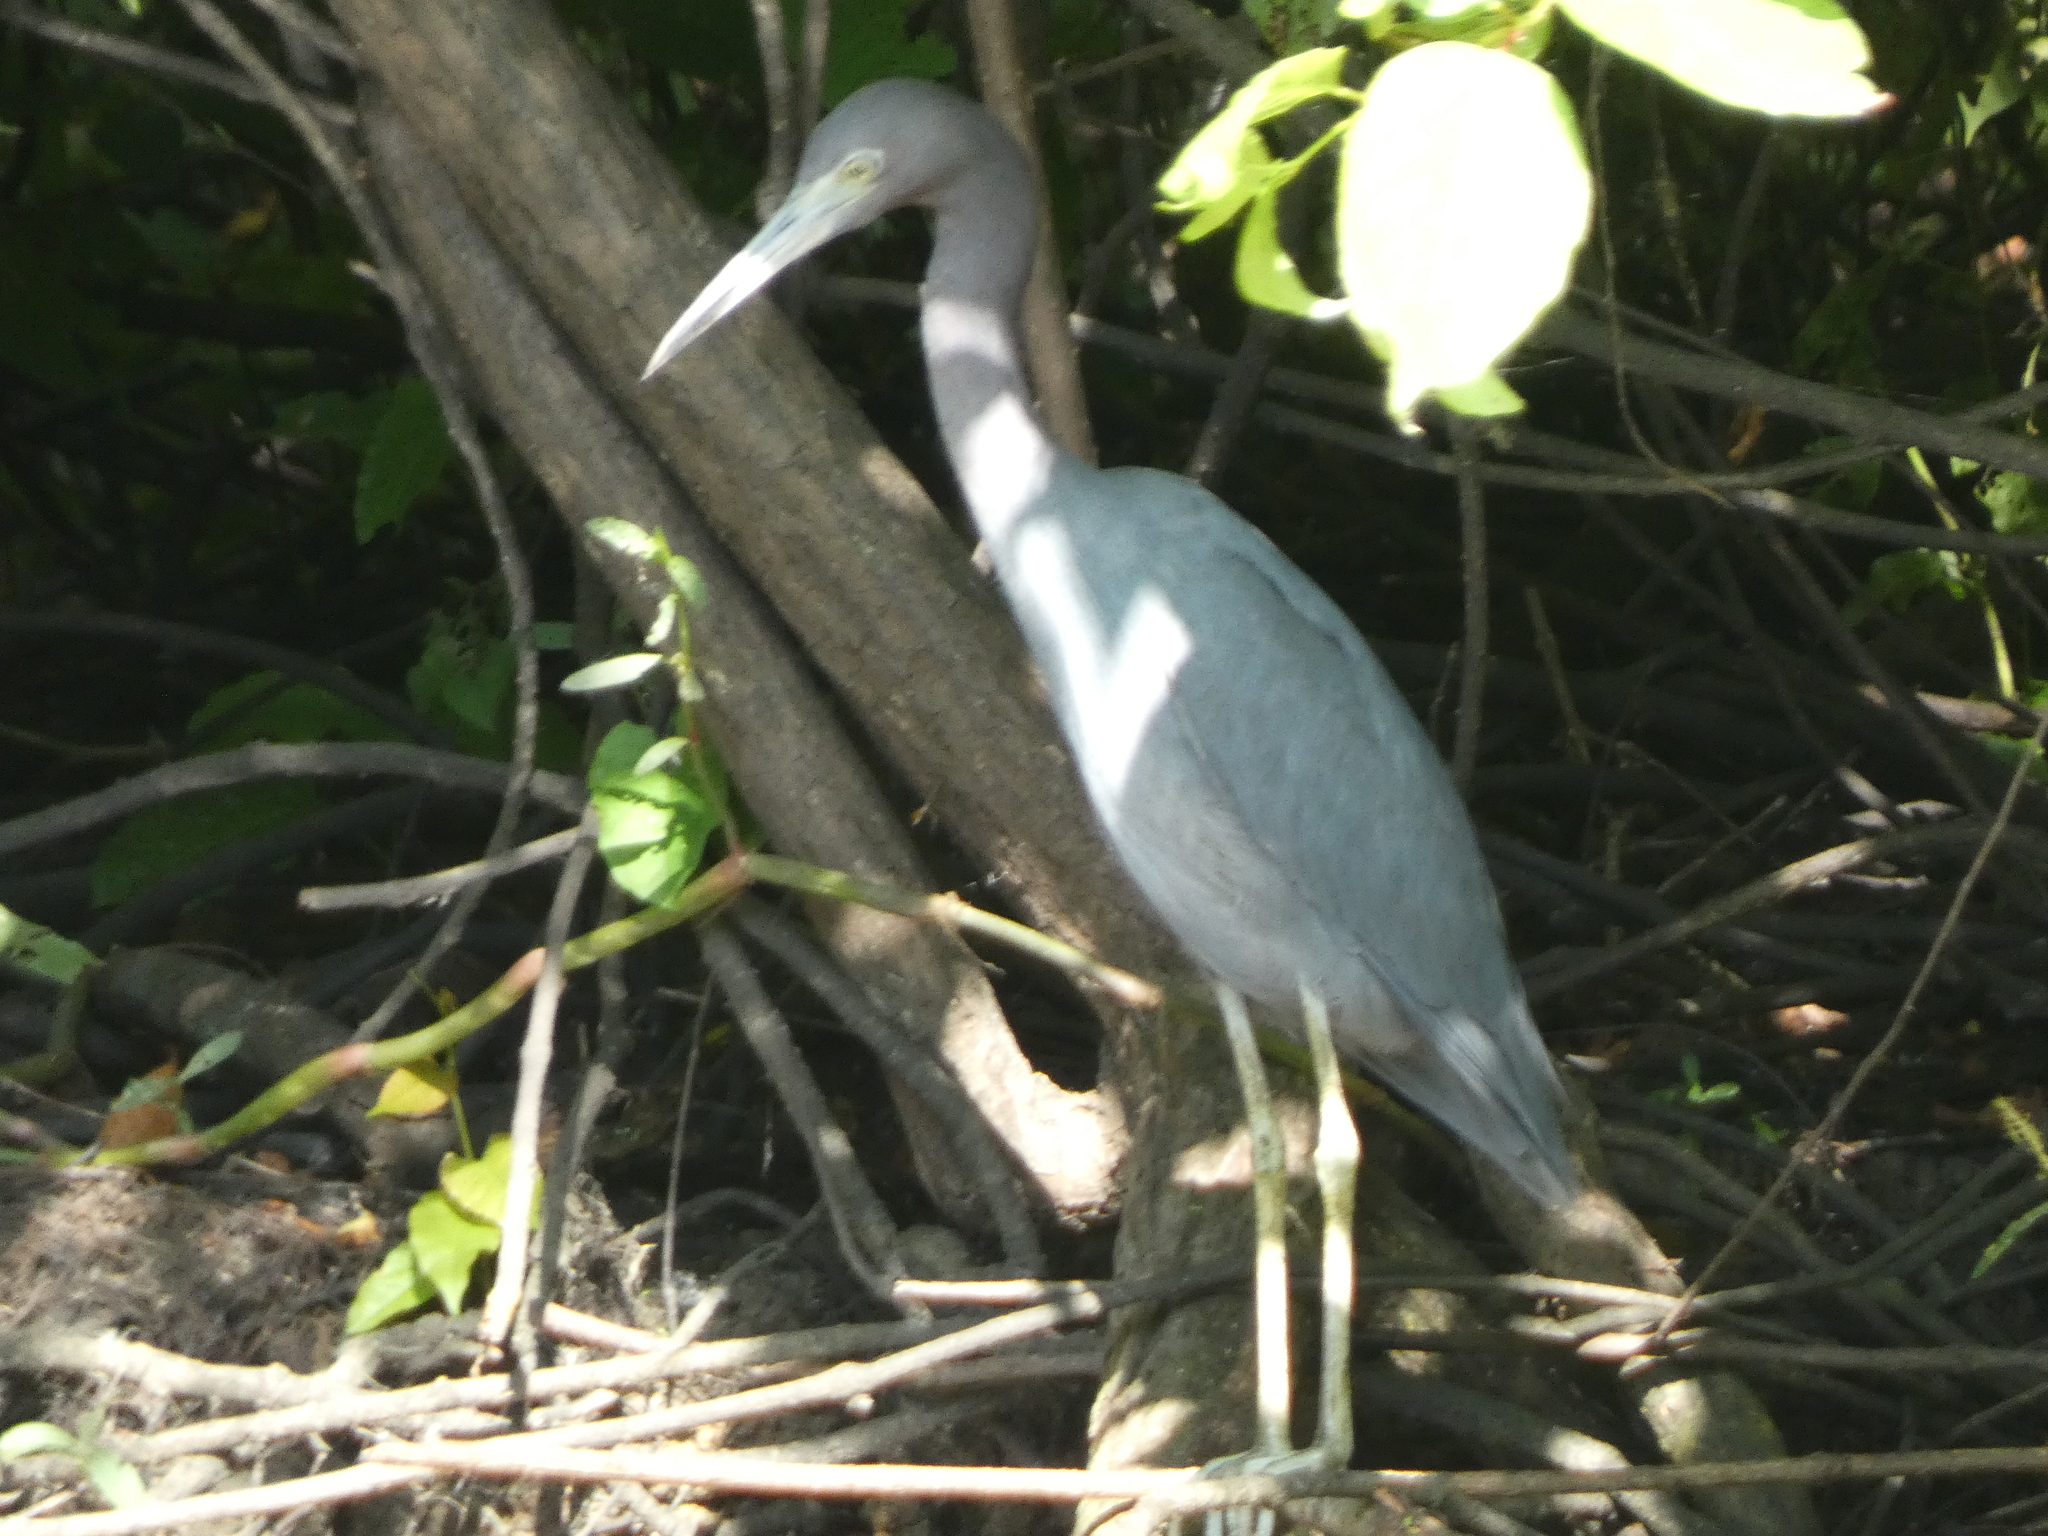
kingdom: Animalia
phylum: Chordata
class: Aves
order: Pelecaniformes
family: Ardeidae
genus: Egretta
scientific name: Egretta caerulea
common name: Little blue heron
